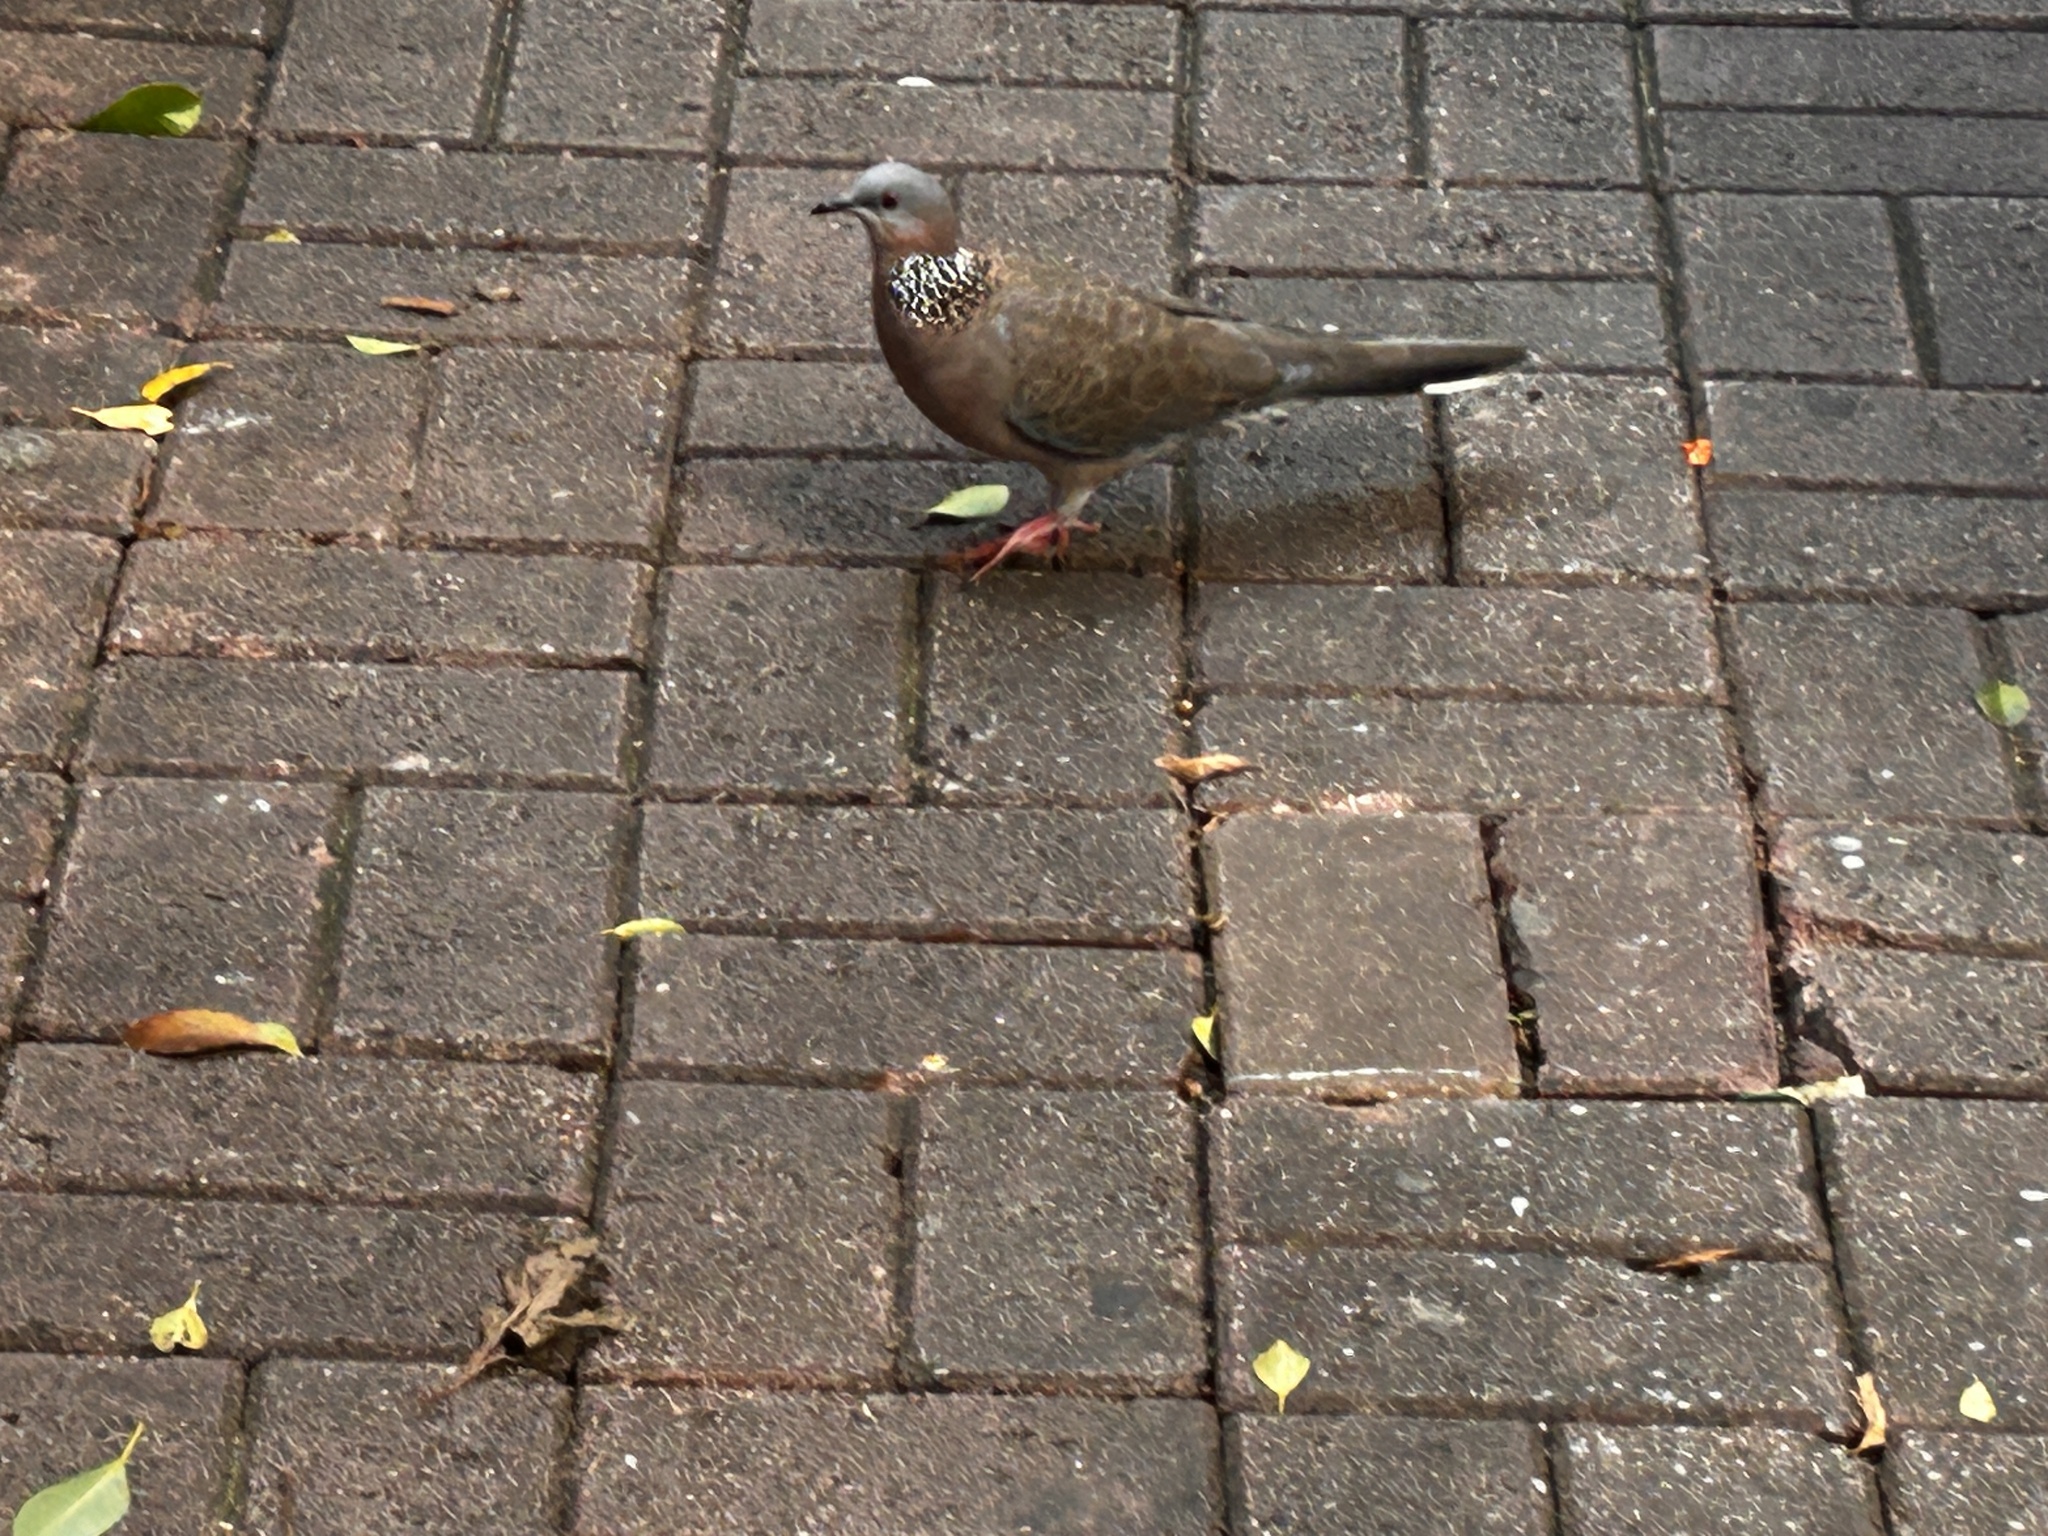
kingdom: Animalia
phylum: Chordata
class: Aves
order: Columbiformes
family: Columbidae
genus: Spilopelia
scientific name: Spilopelia chinensis
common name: Spotted dove
